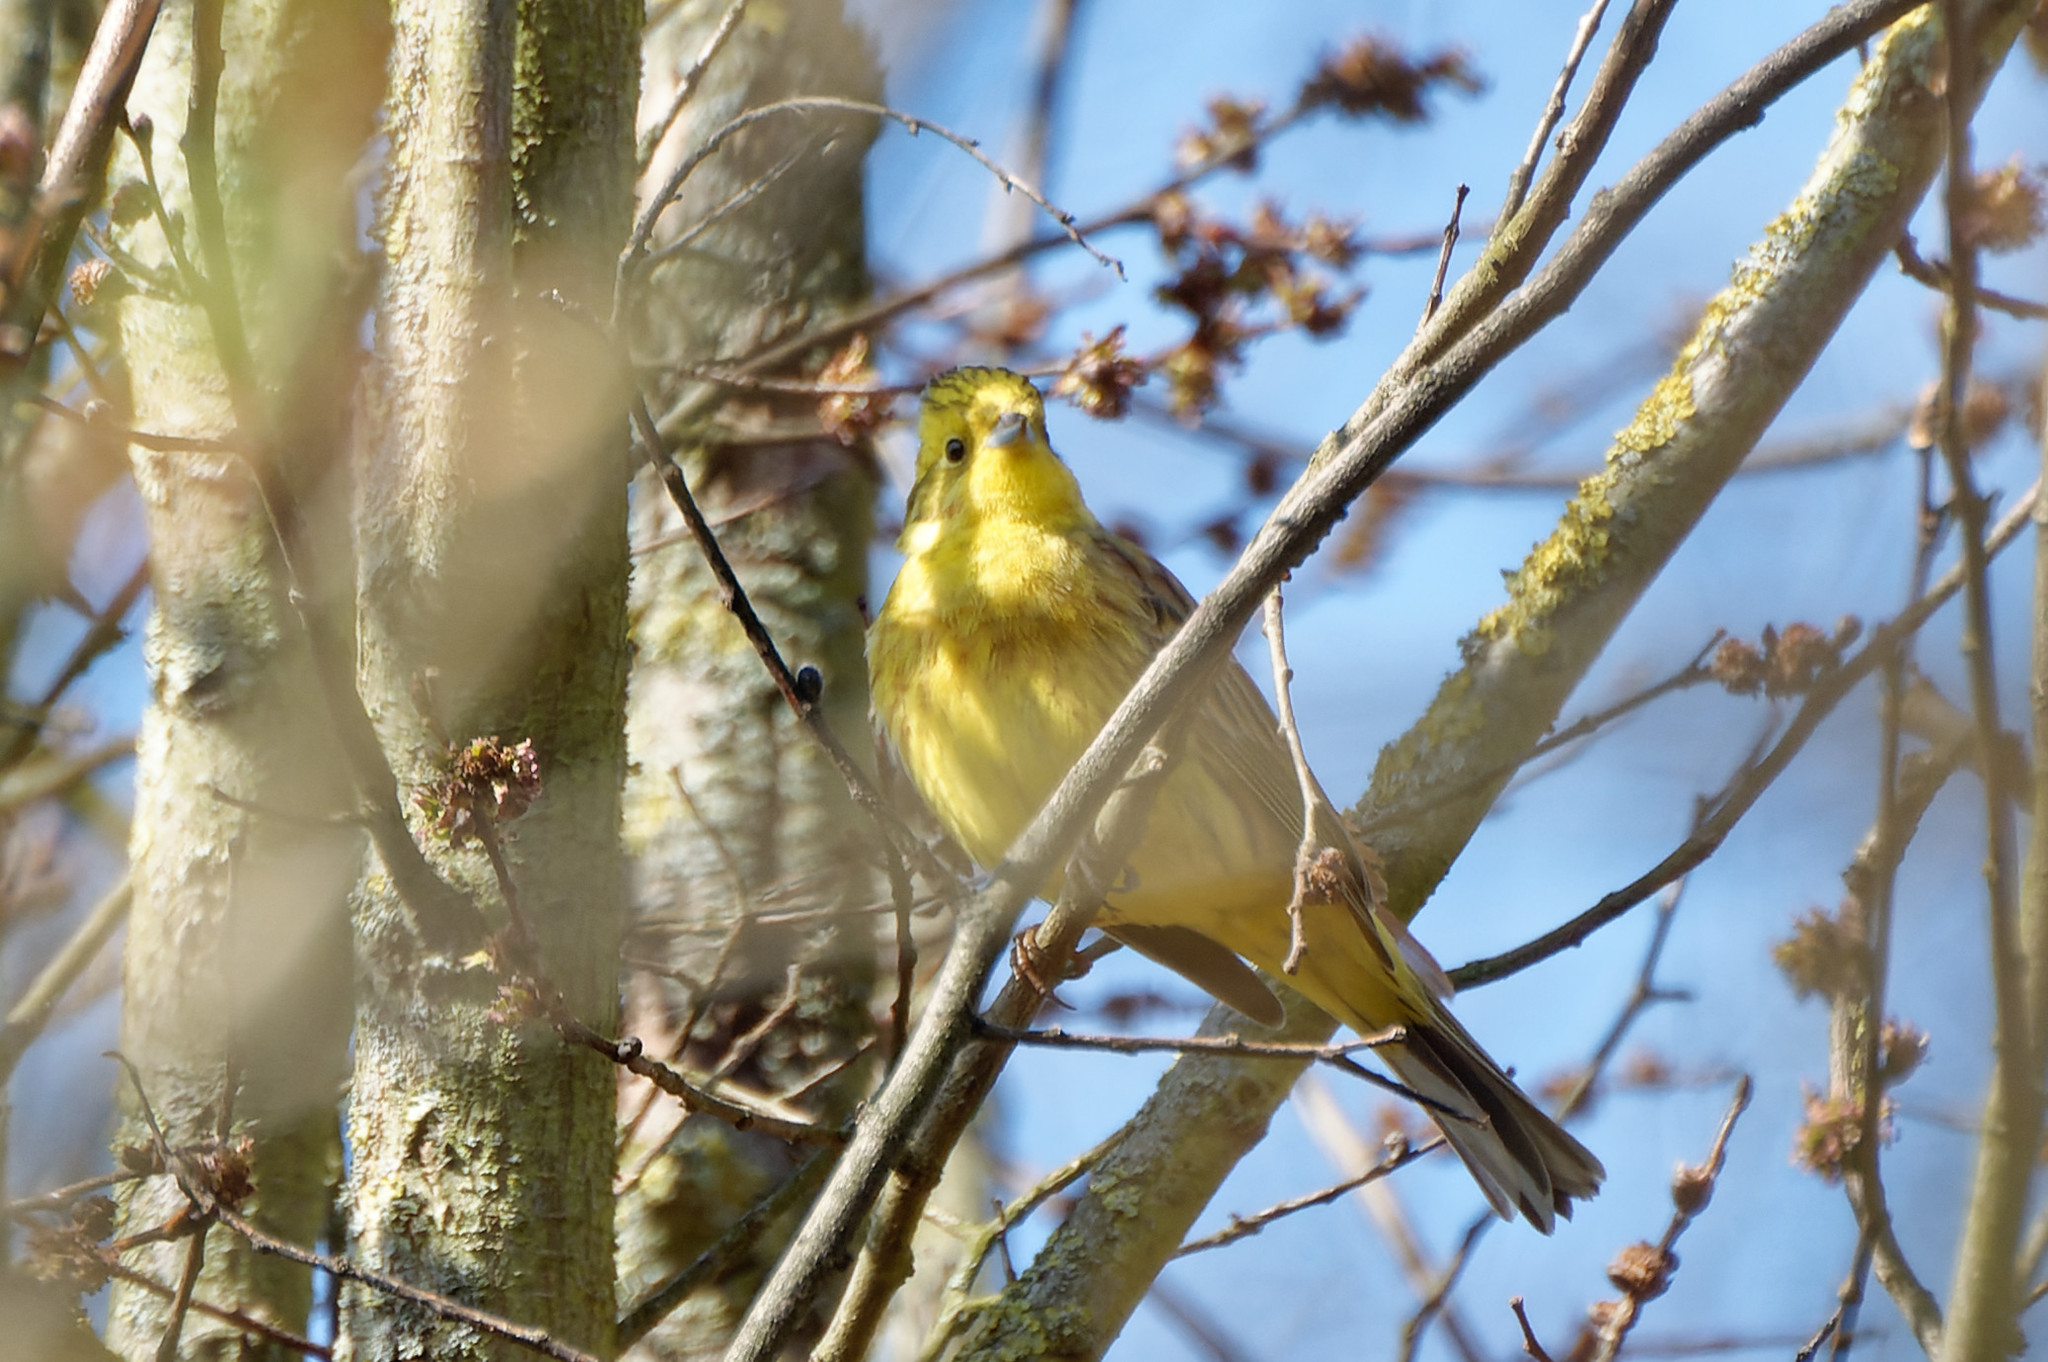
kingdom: Animalia
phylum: Chordata
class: Aves
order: Passeriformes
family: Emberizidae
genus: Emberiza
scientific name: Emberiza citrinella
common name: Yellowhammer
